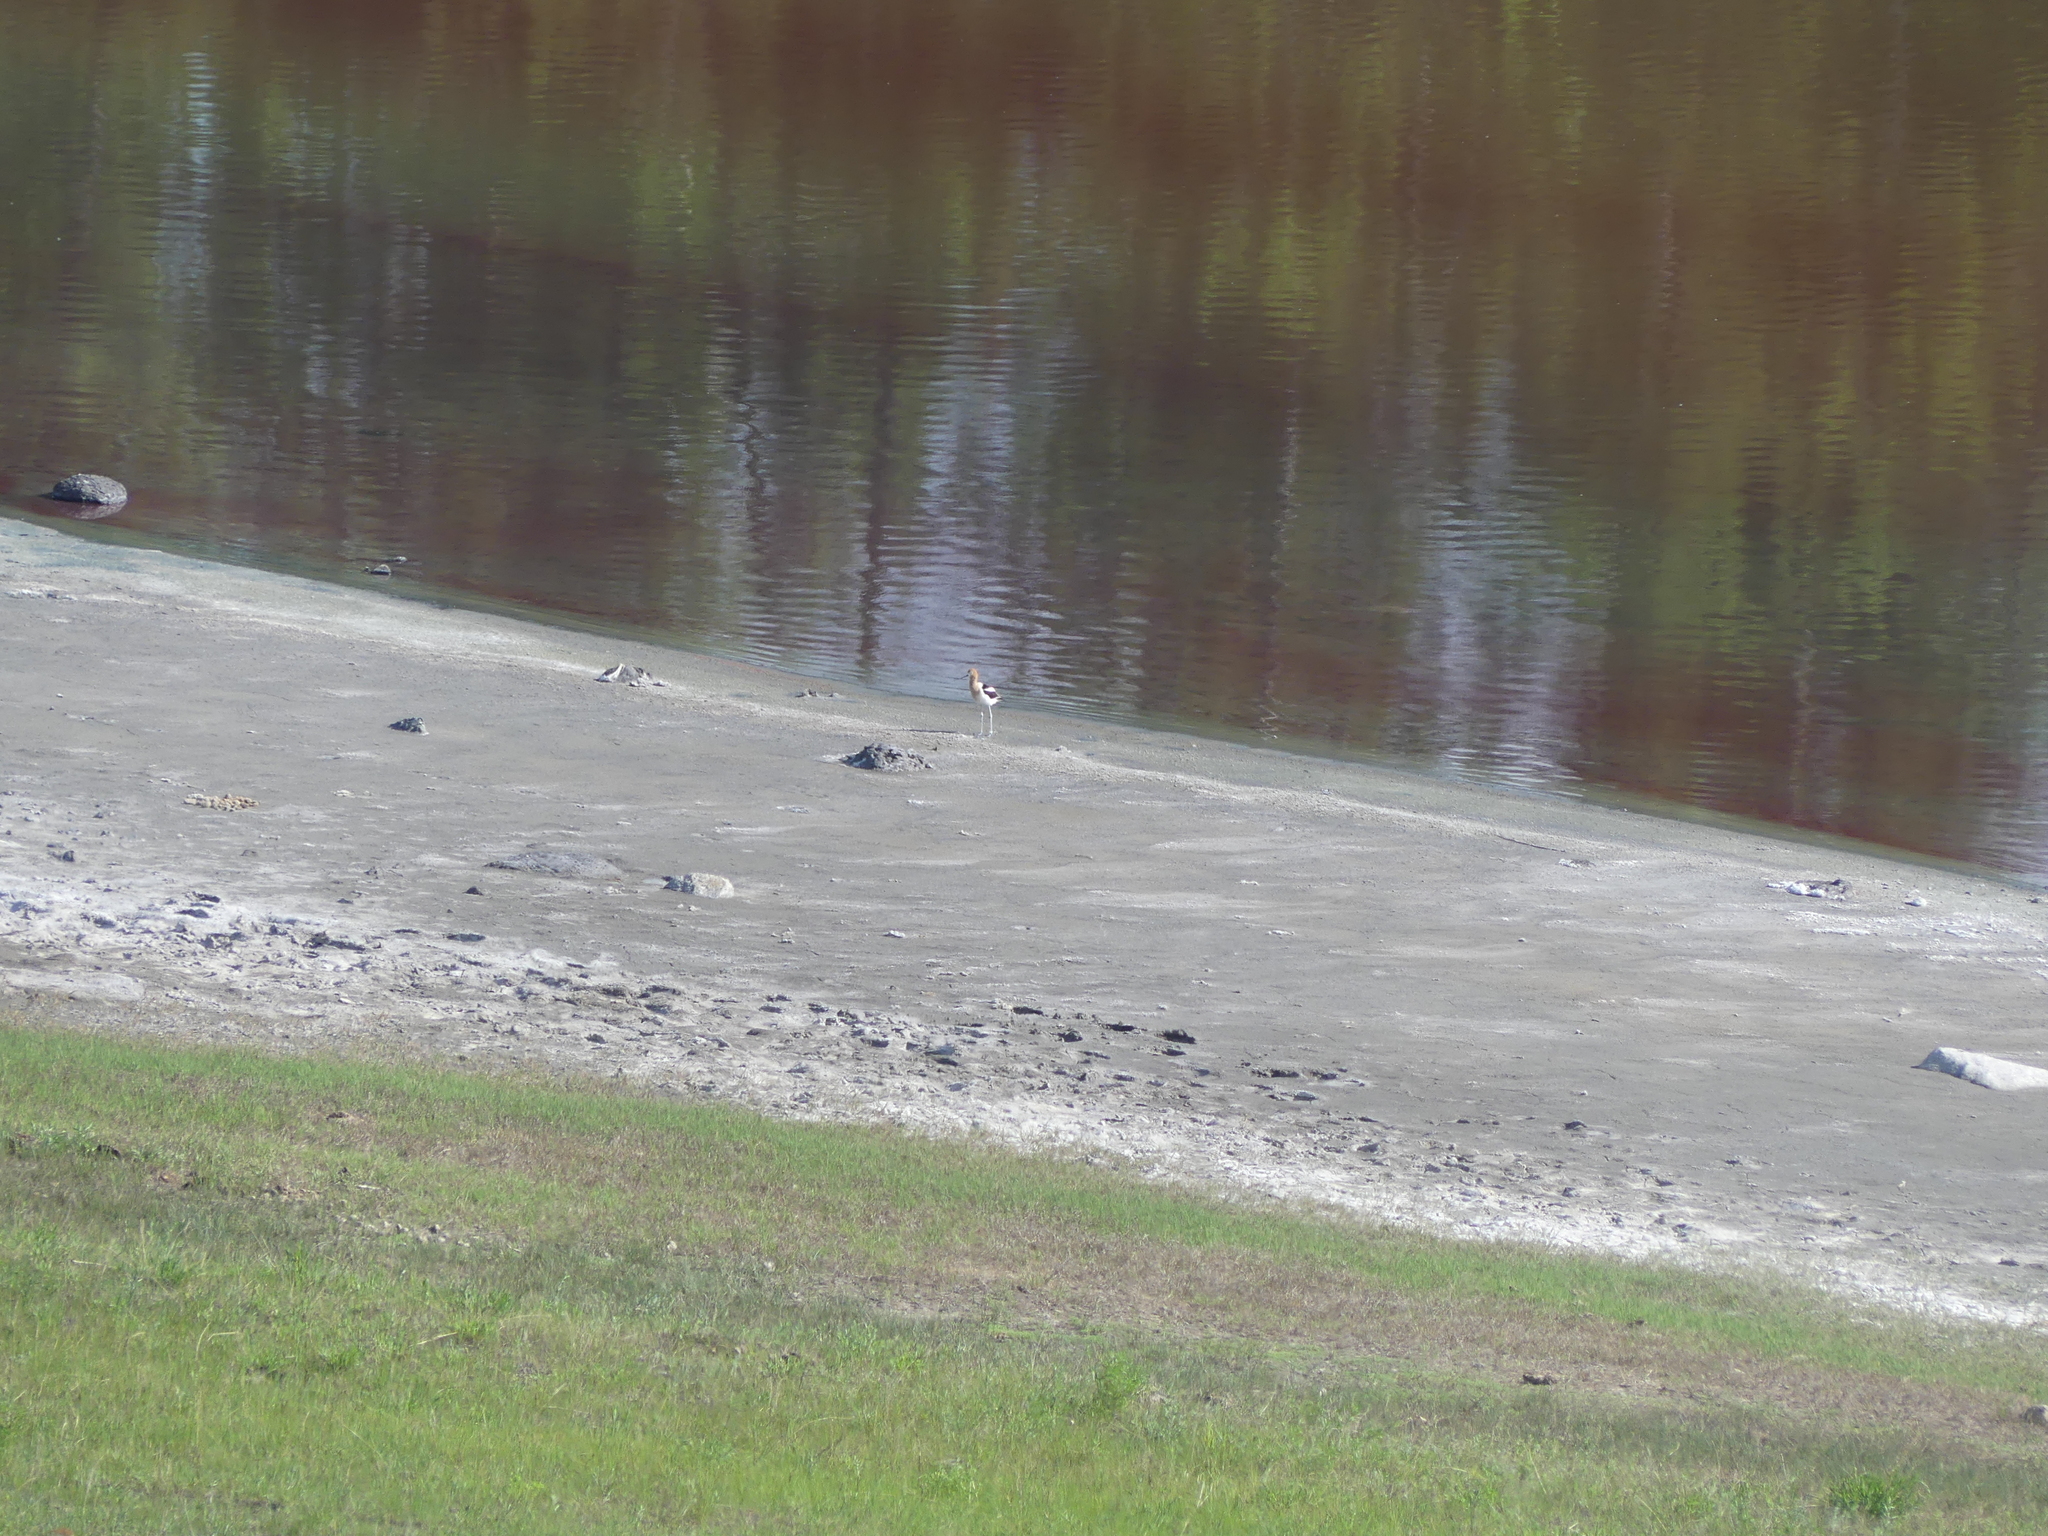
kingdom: Animalia
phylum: Chordata
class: Aves
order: Charadriiformes
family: Recurvirostridae
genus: Recurvirostra
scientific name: Recurvirostra americana
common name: American avocet
